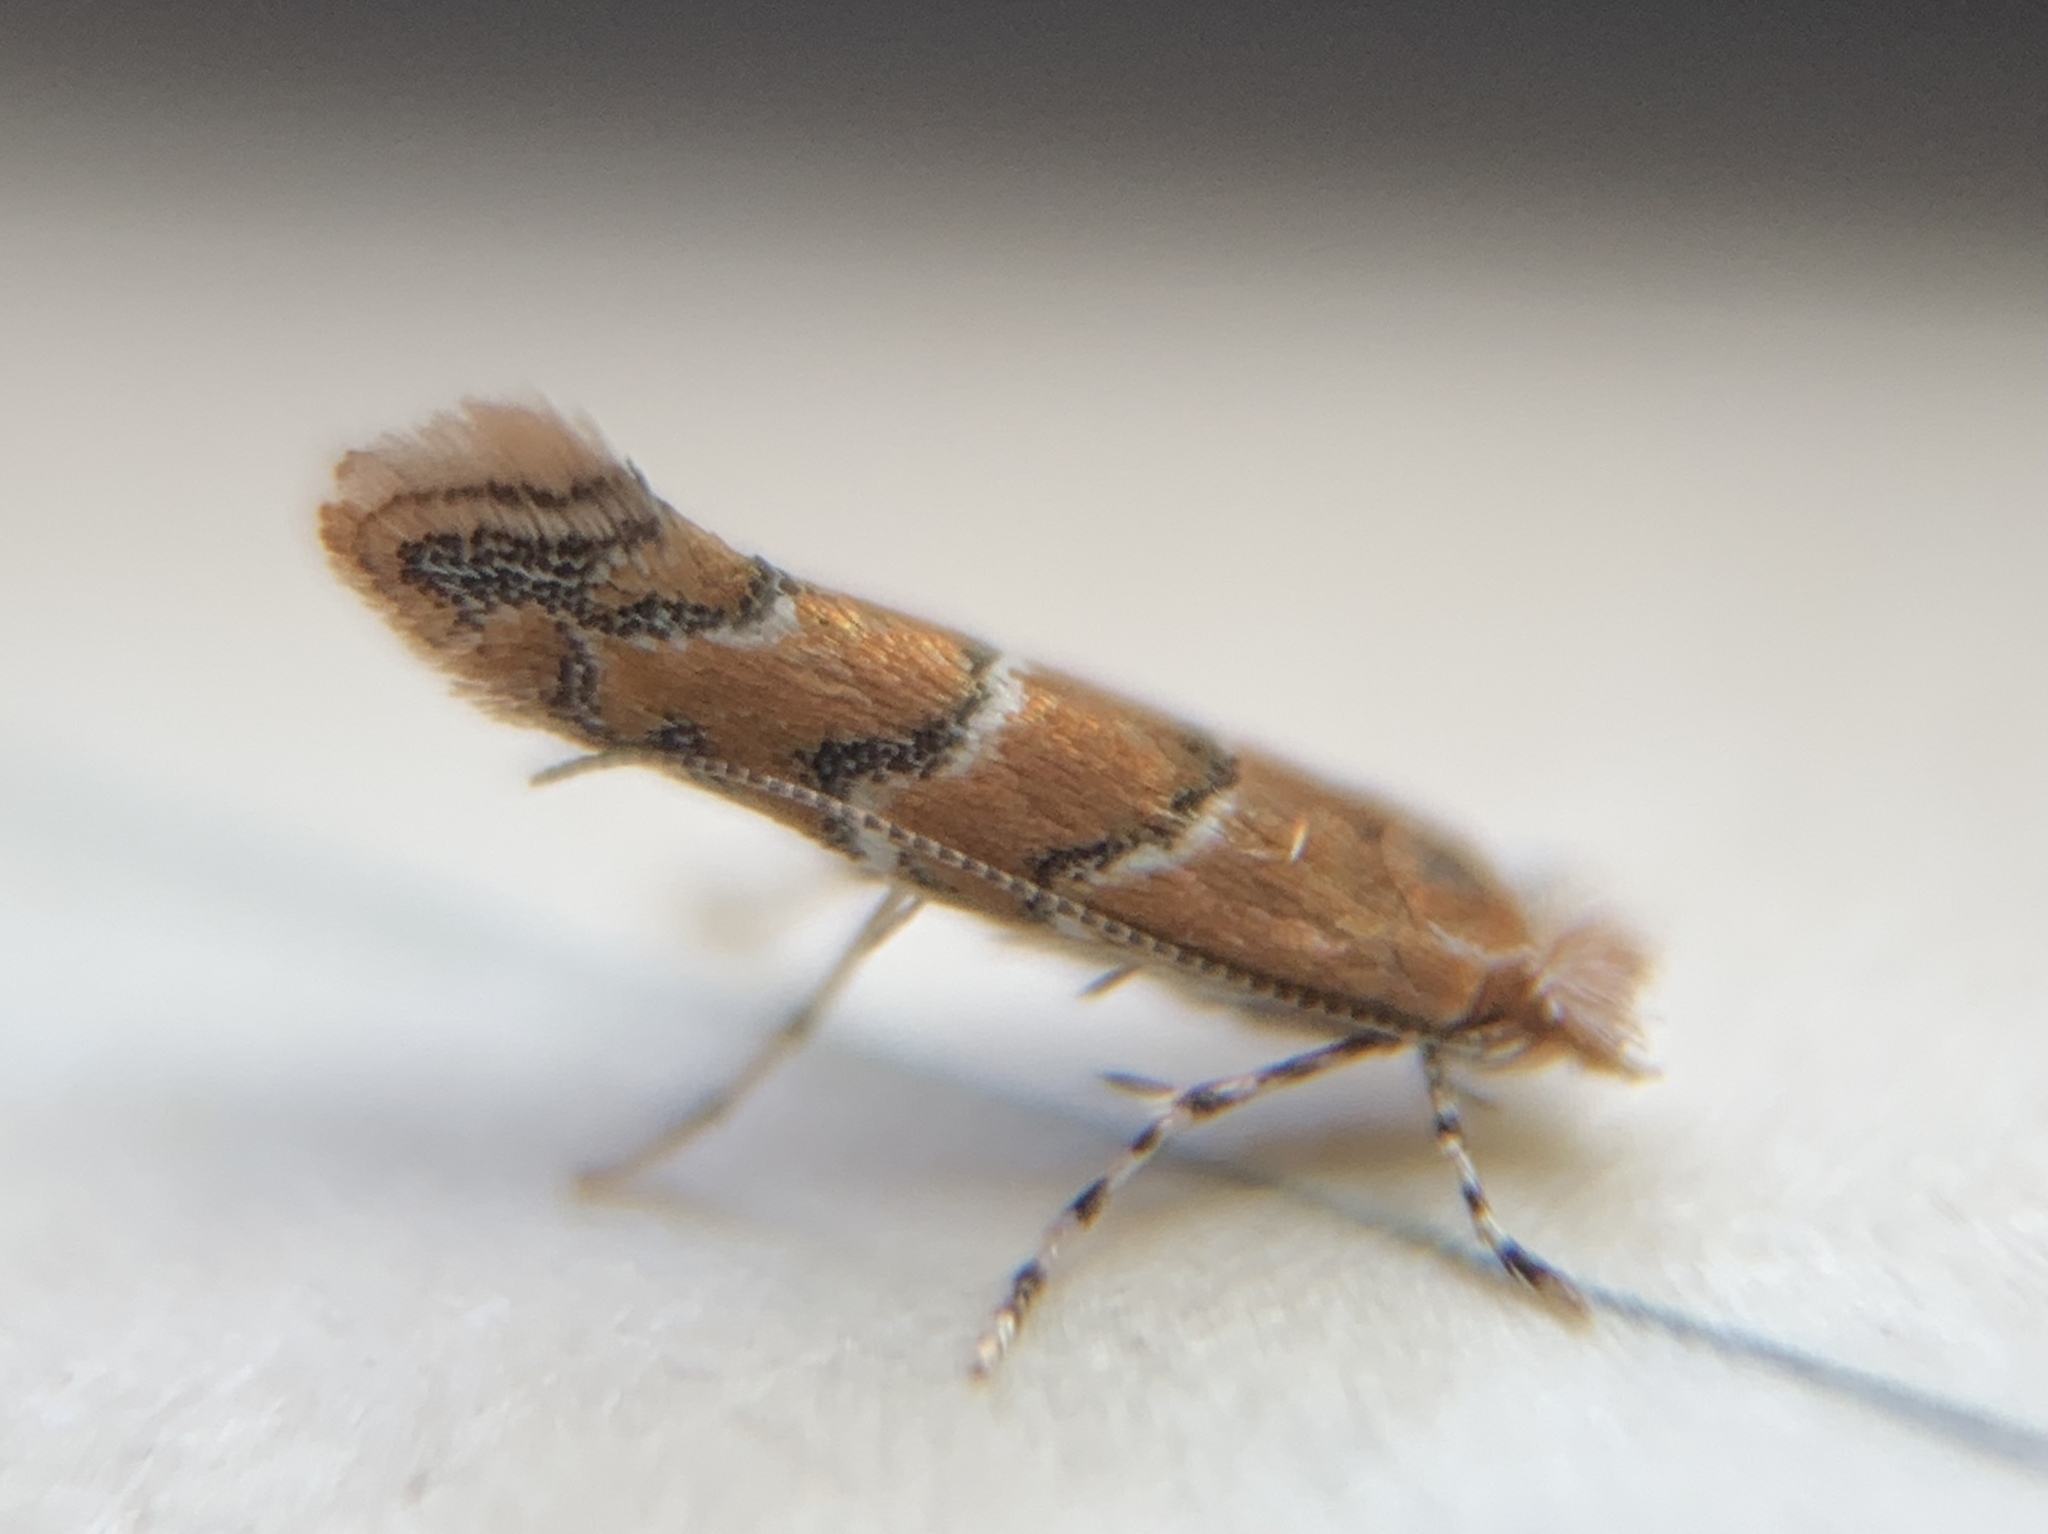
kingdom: Animalia
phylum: Arthropoda
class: Insecta
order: Lepidoptera
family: Gracillariidae
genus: Cameraria
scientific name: Cameraria caryaefoliella
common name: Pecan leafminer moth
